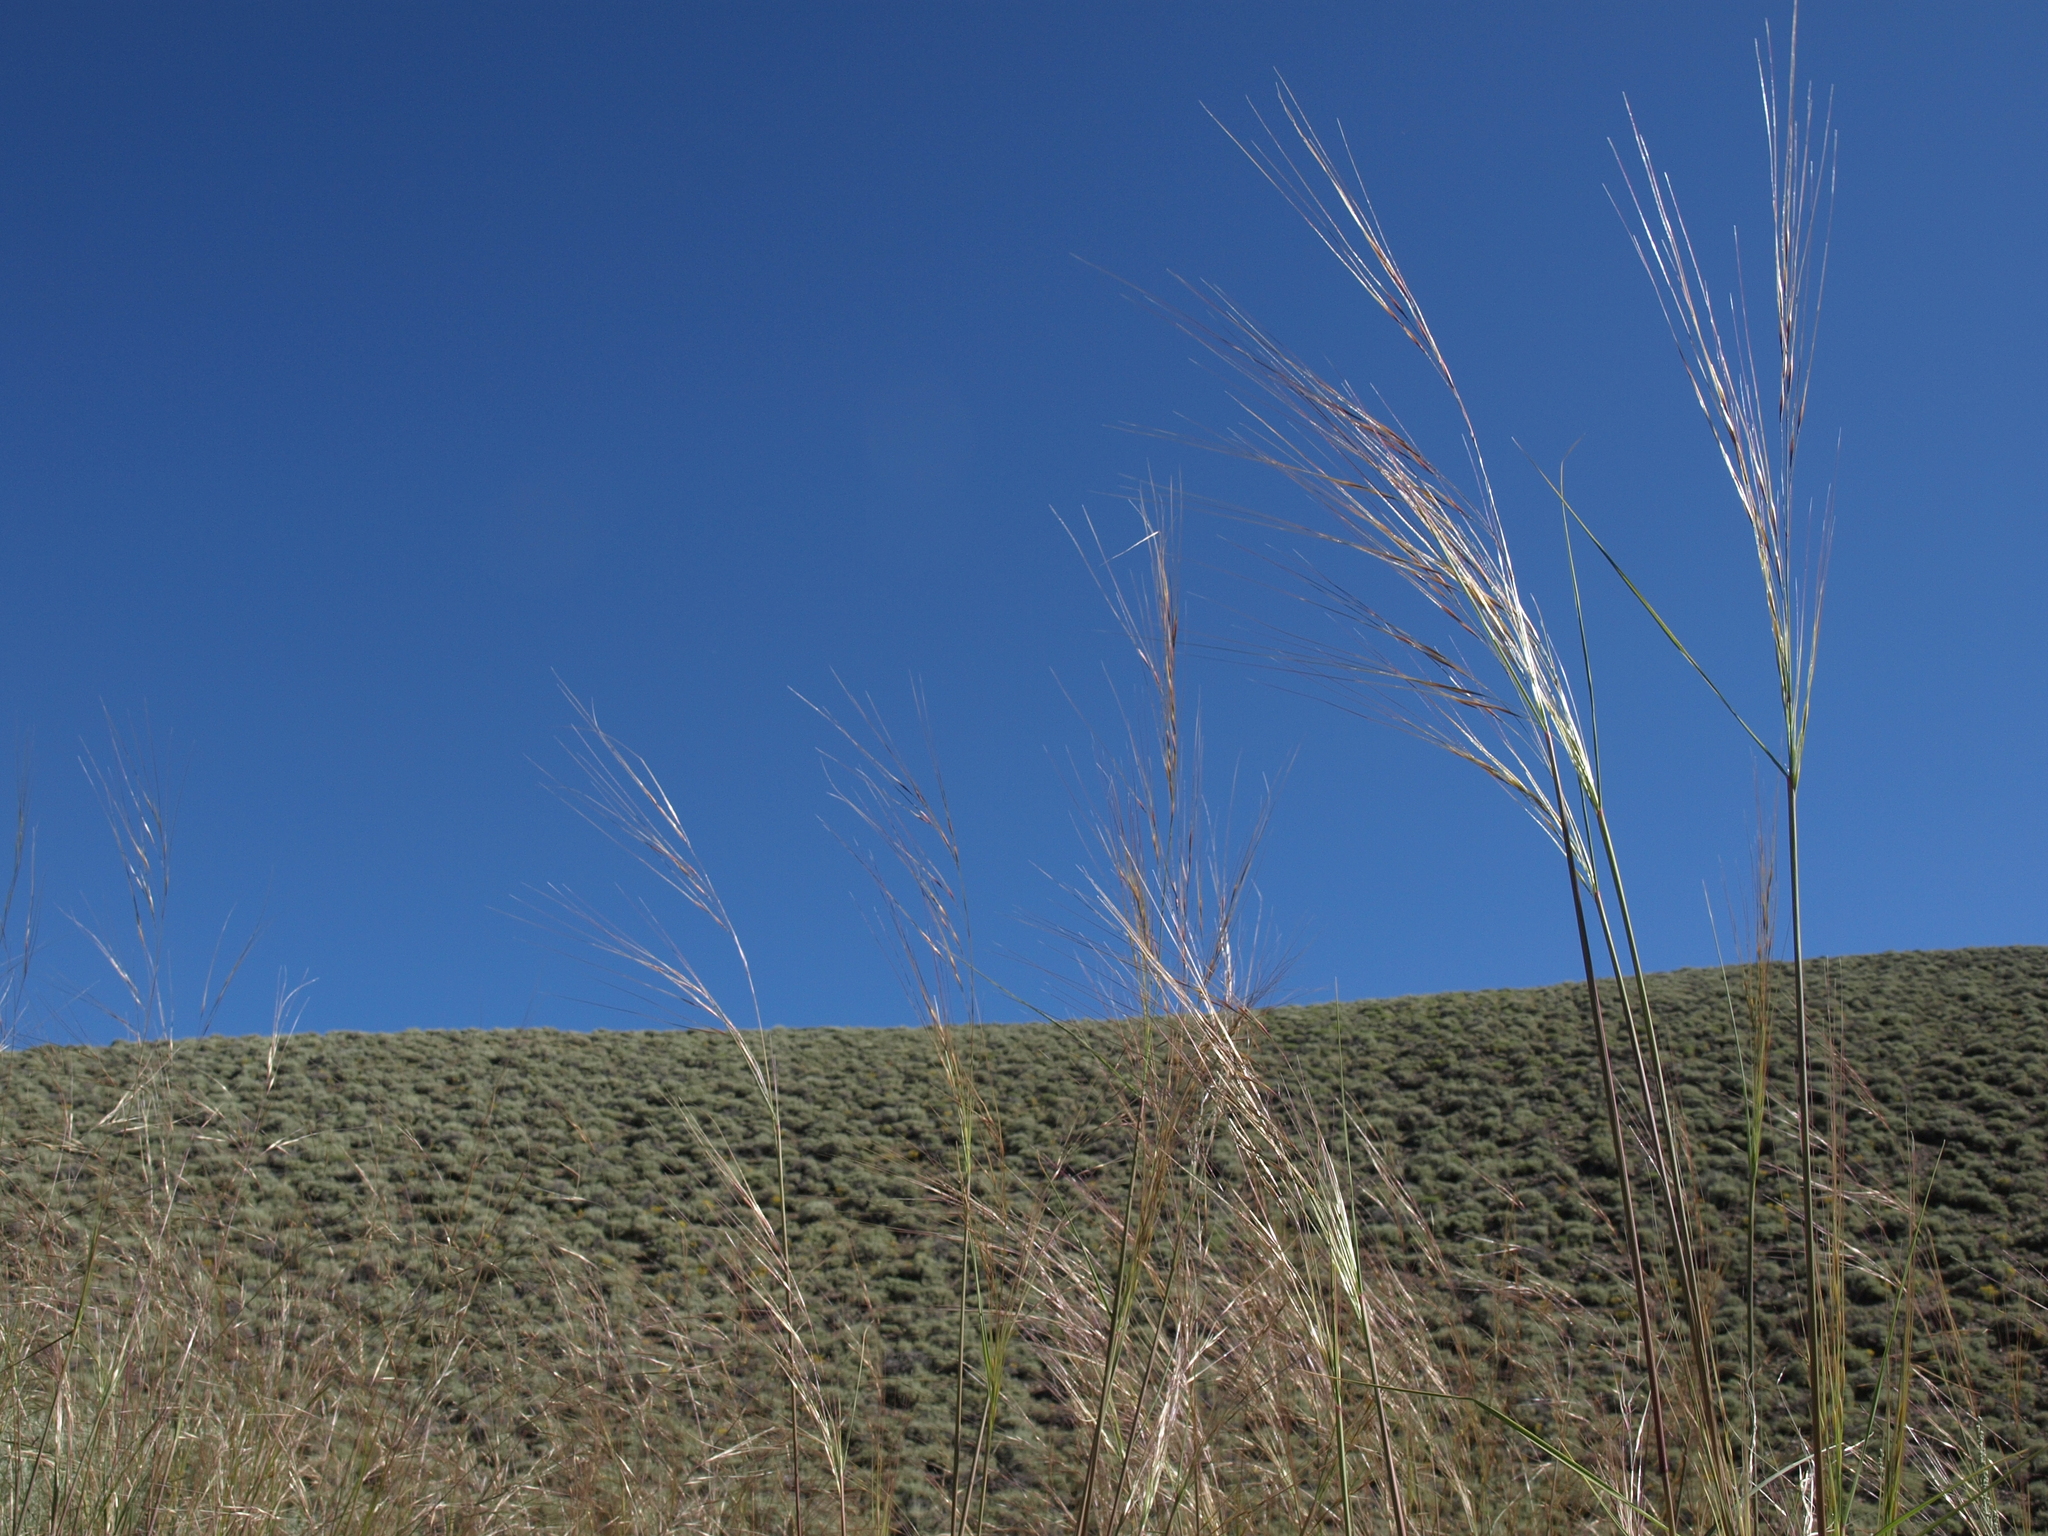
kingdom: Plantae
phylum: Tracheophyta
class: Liliopsida
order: Poales
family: Poaceae
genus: Hesperostipa
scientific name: Hesperostipa comata
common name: Needle-and-thread grass
